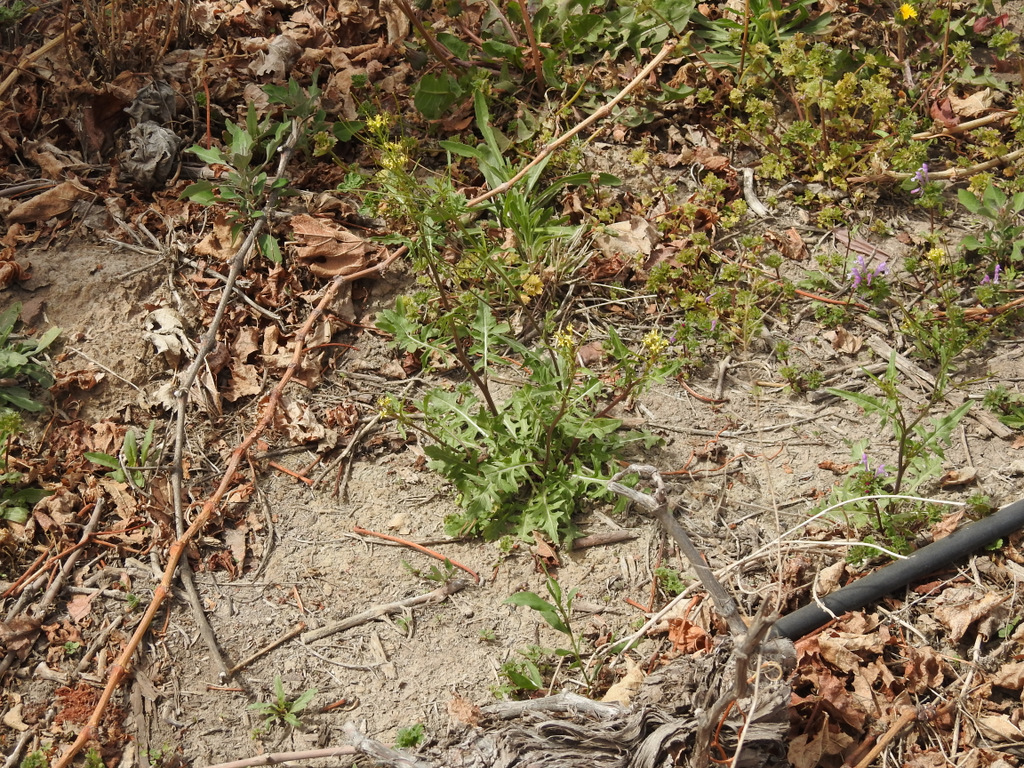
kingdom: Plantae
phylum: Tracheophyta
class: Magnoliopsida
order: Brassicales
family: Brassicaceae
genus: Sisymbrium
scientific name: Sisymbrium irio
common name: London rocket
